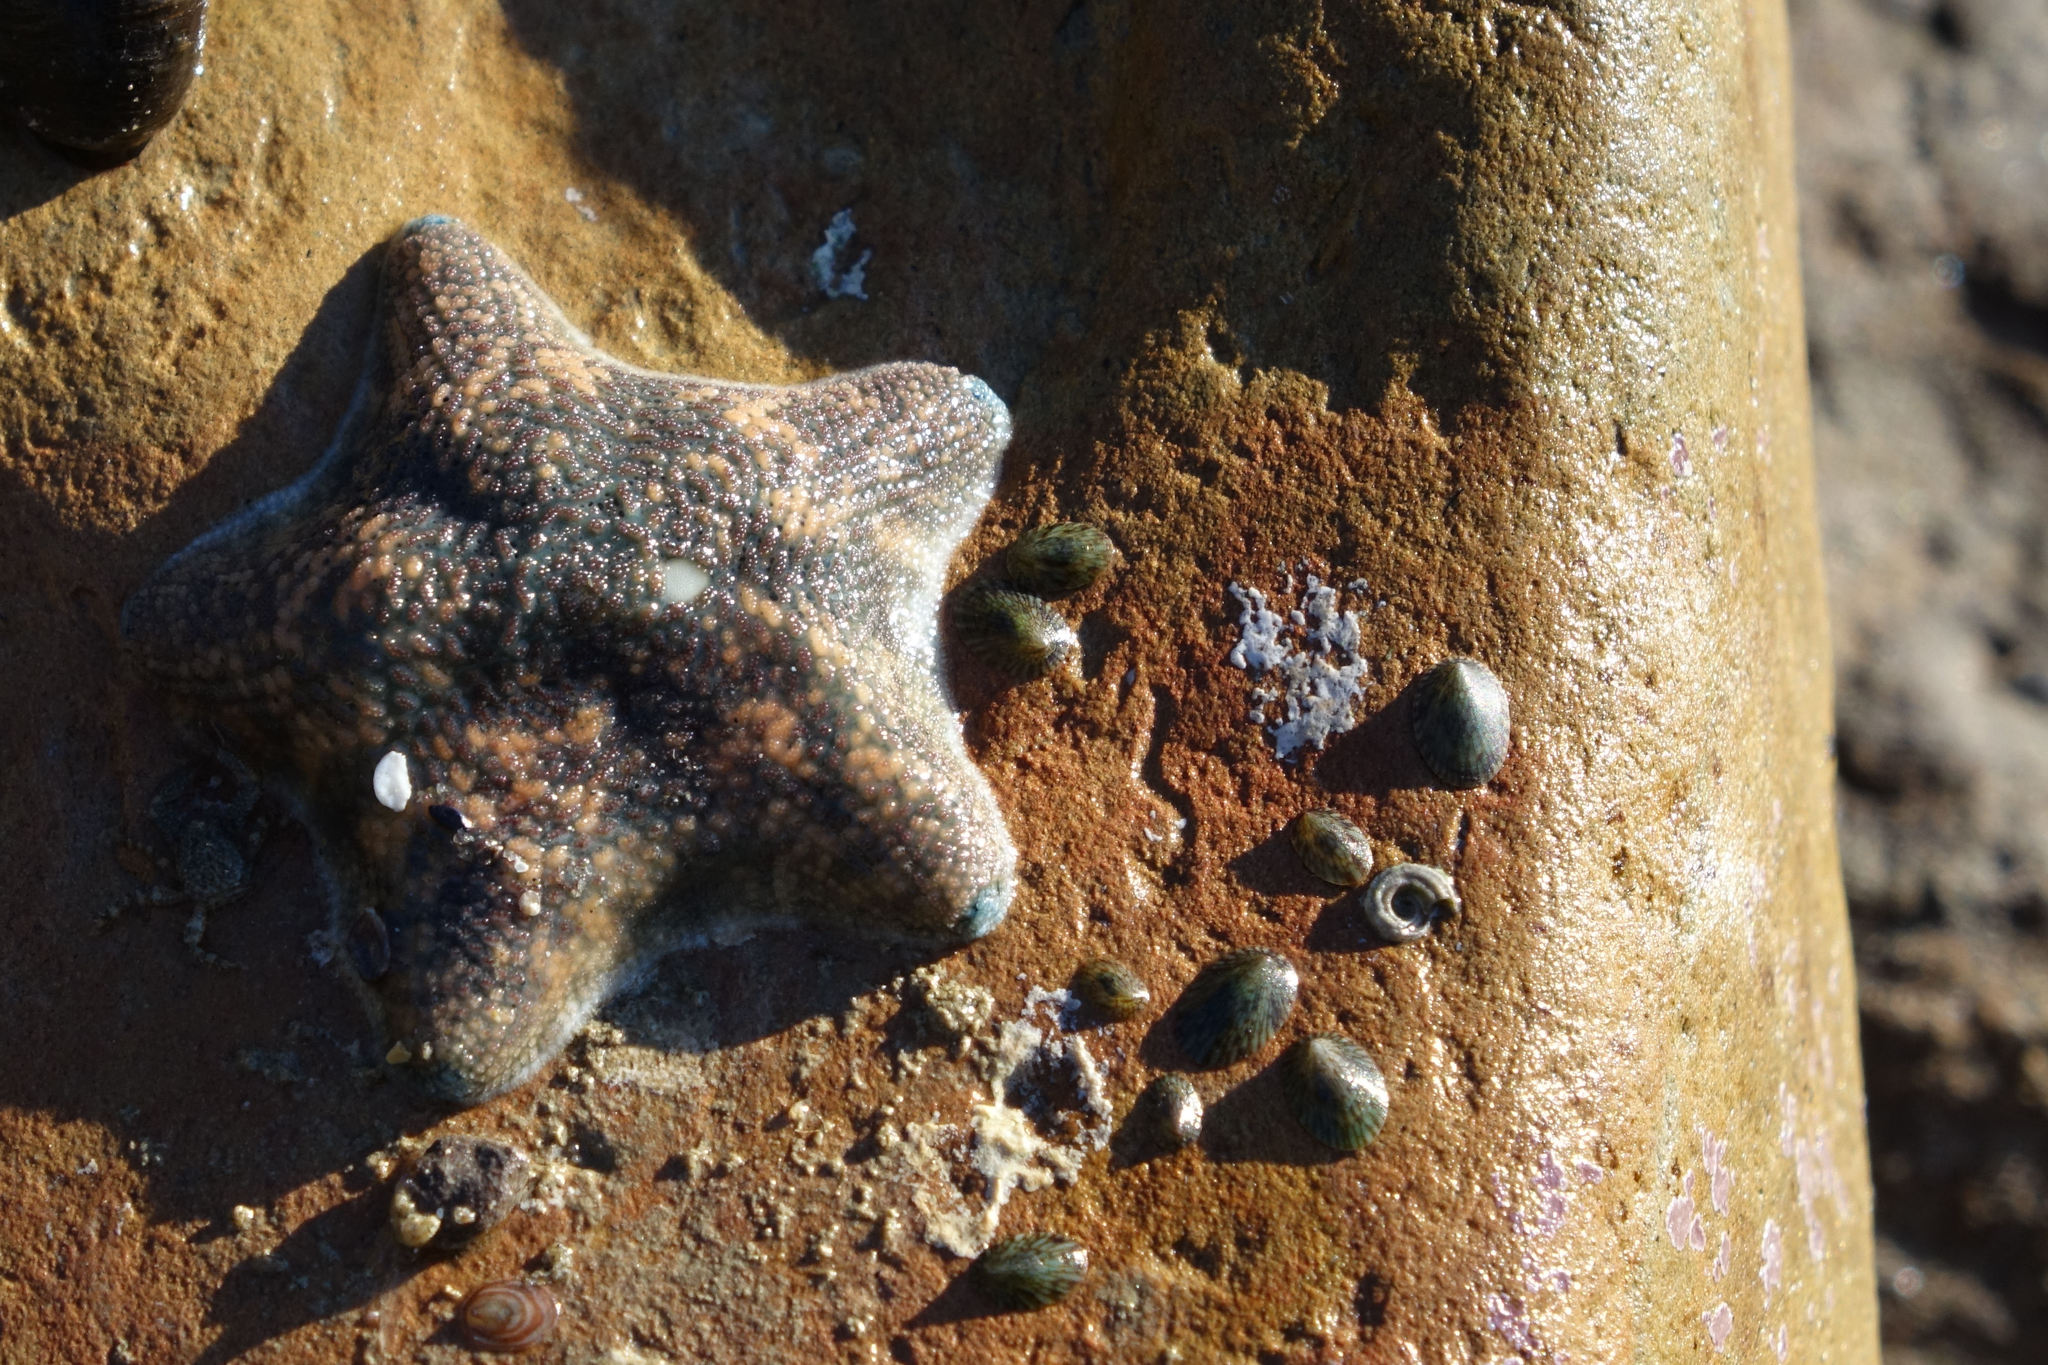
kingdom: Animalia
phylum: Echinodermata
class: Asteroidea
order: Valvatida
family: Asterinidae
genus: Patiriella
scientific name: Patiriella regularis
